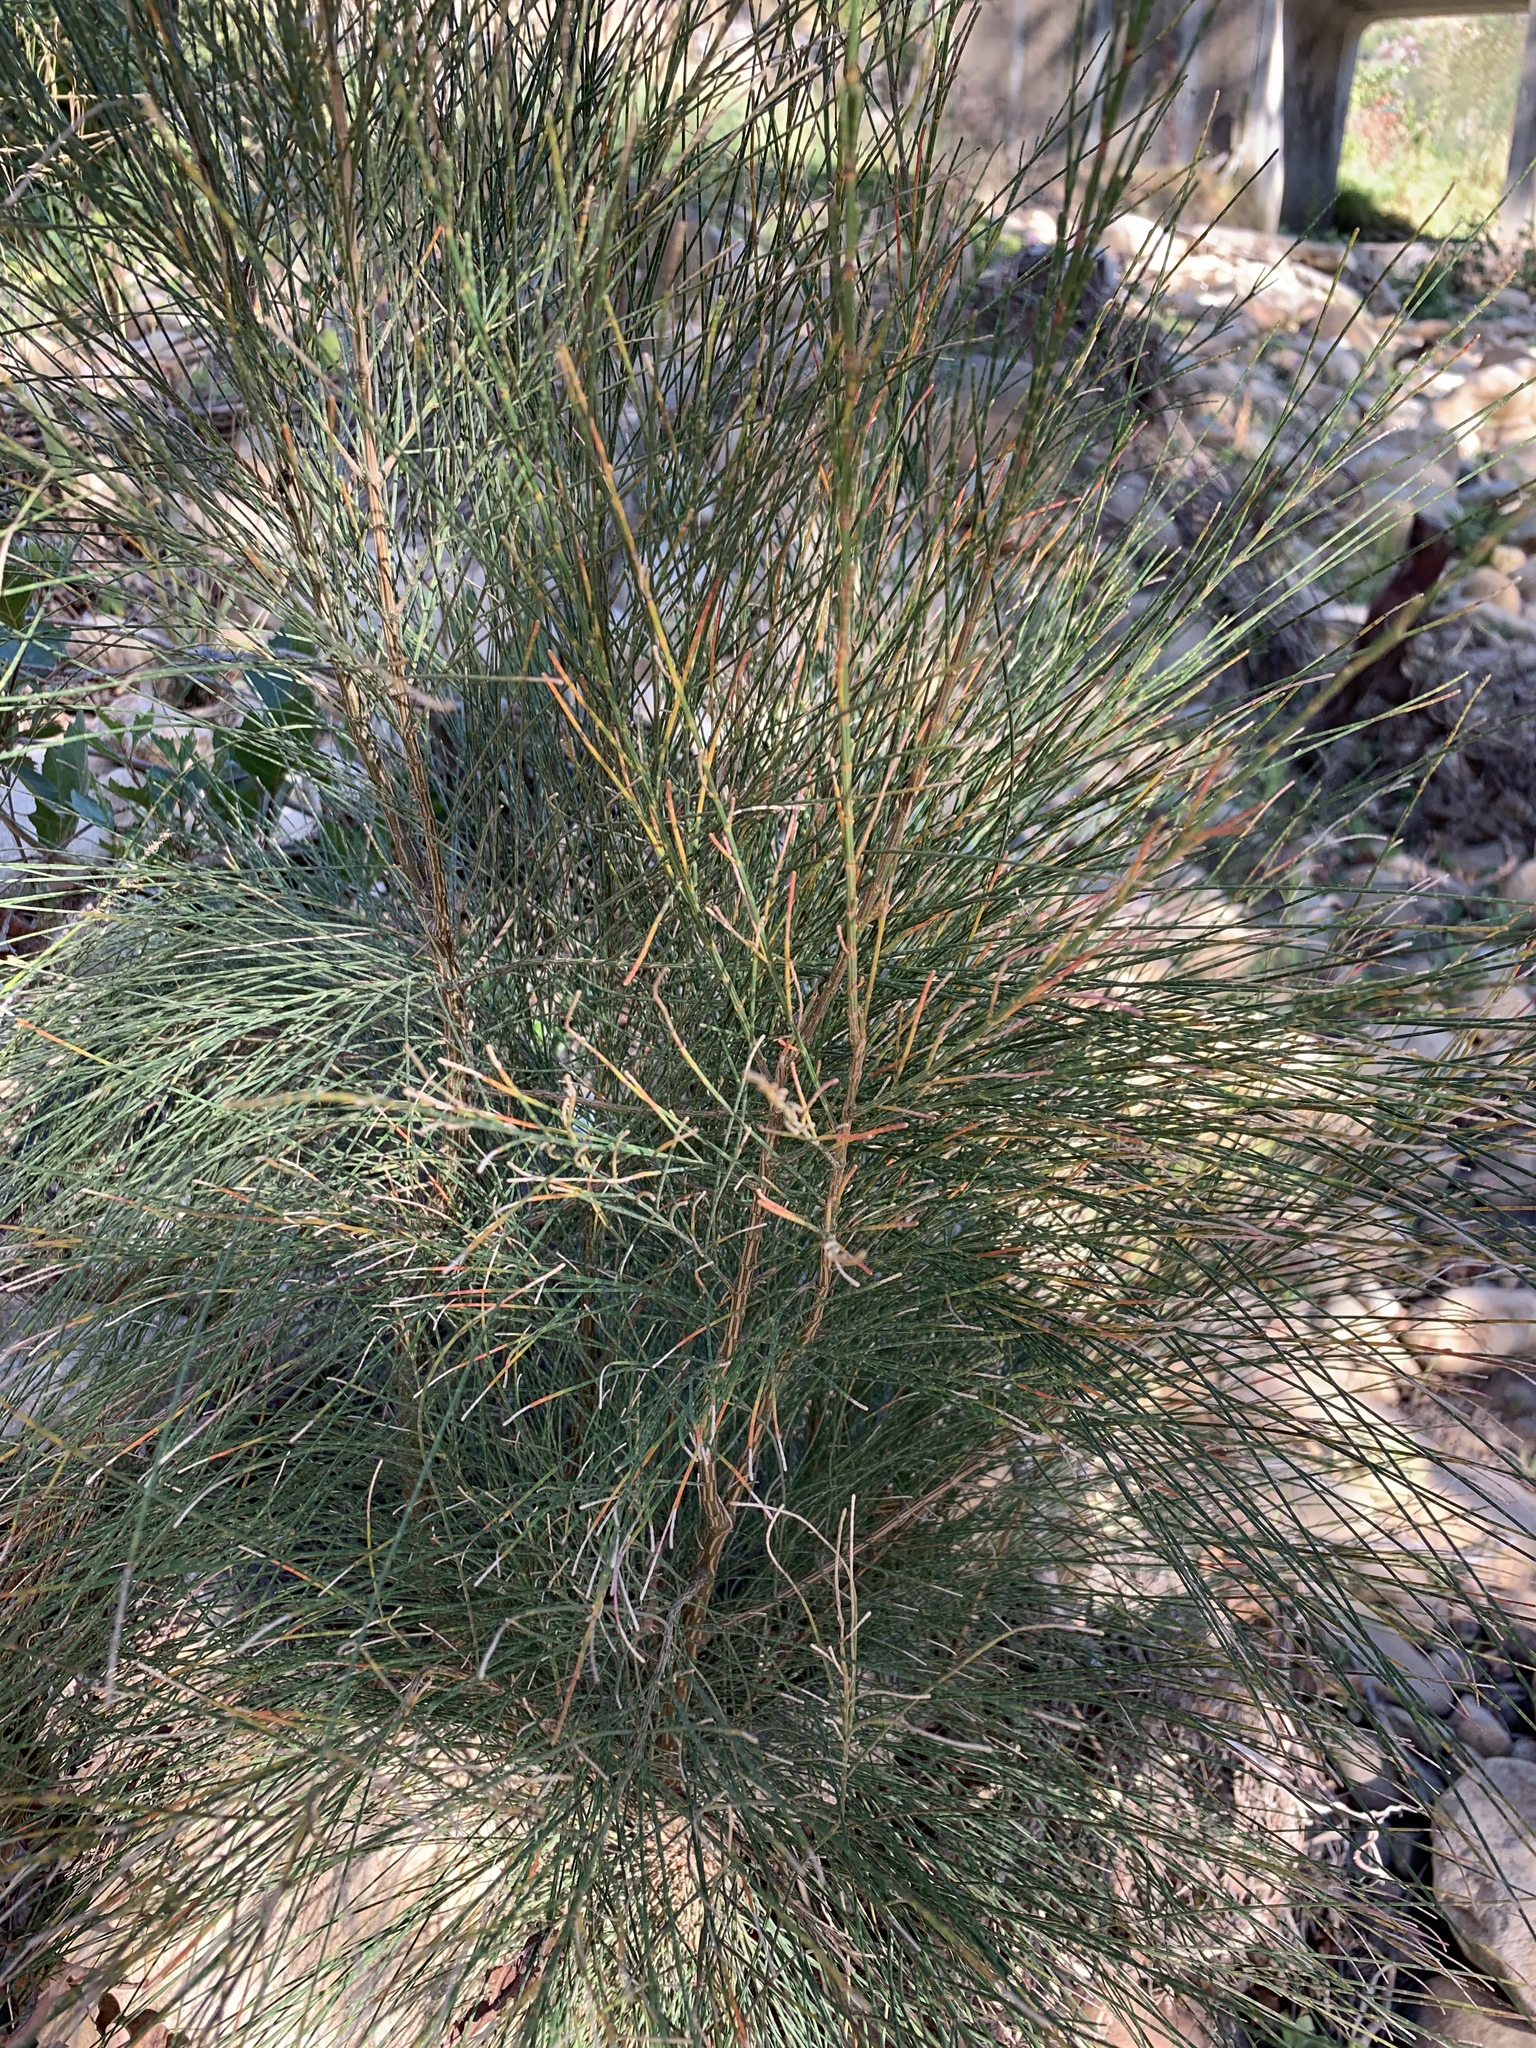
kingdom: Plantae
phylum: Tracheophyta
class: Magnoliopsida
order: Fagales
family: Casuarinaceae
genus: Casuarina
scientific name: Casuarina cunninghamiana
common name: River sheoak
